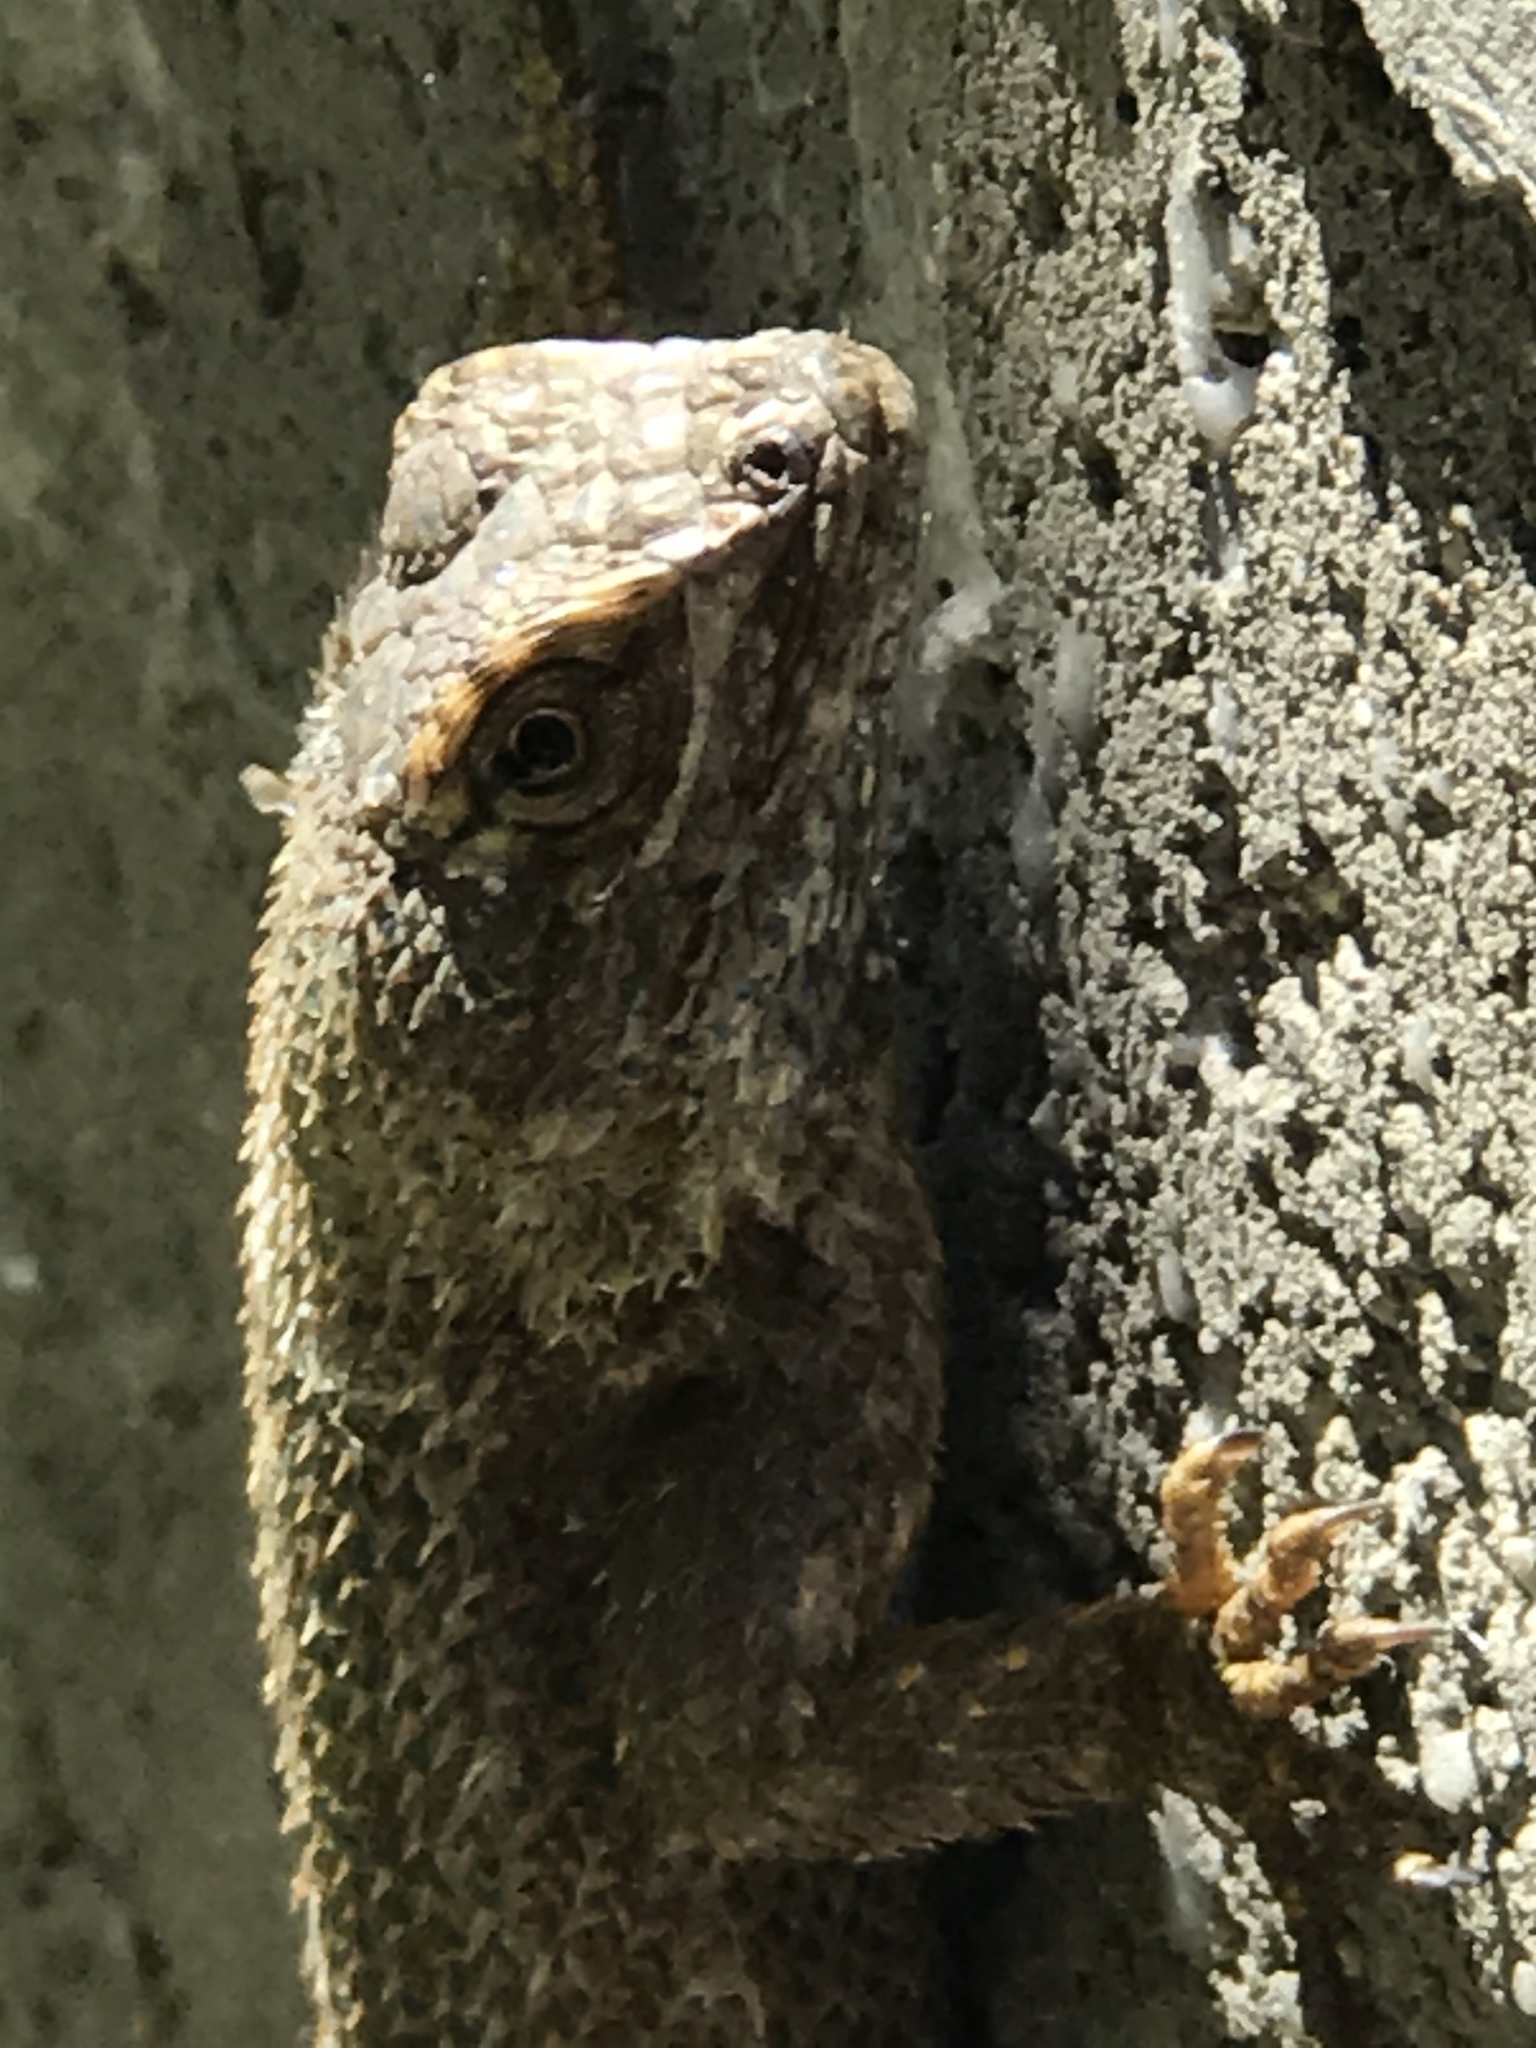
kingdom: Animalia
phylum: Chordata
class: Squamata
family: Phrynosomatidae
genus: Sceloporus
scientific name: Sceloporus occidentalis
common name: Western fence lizard
